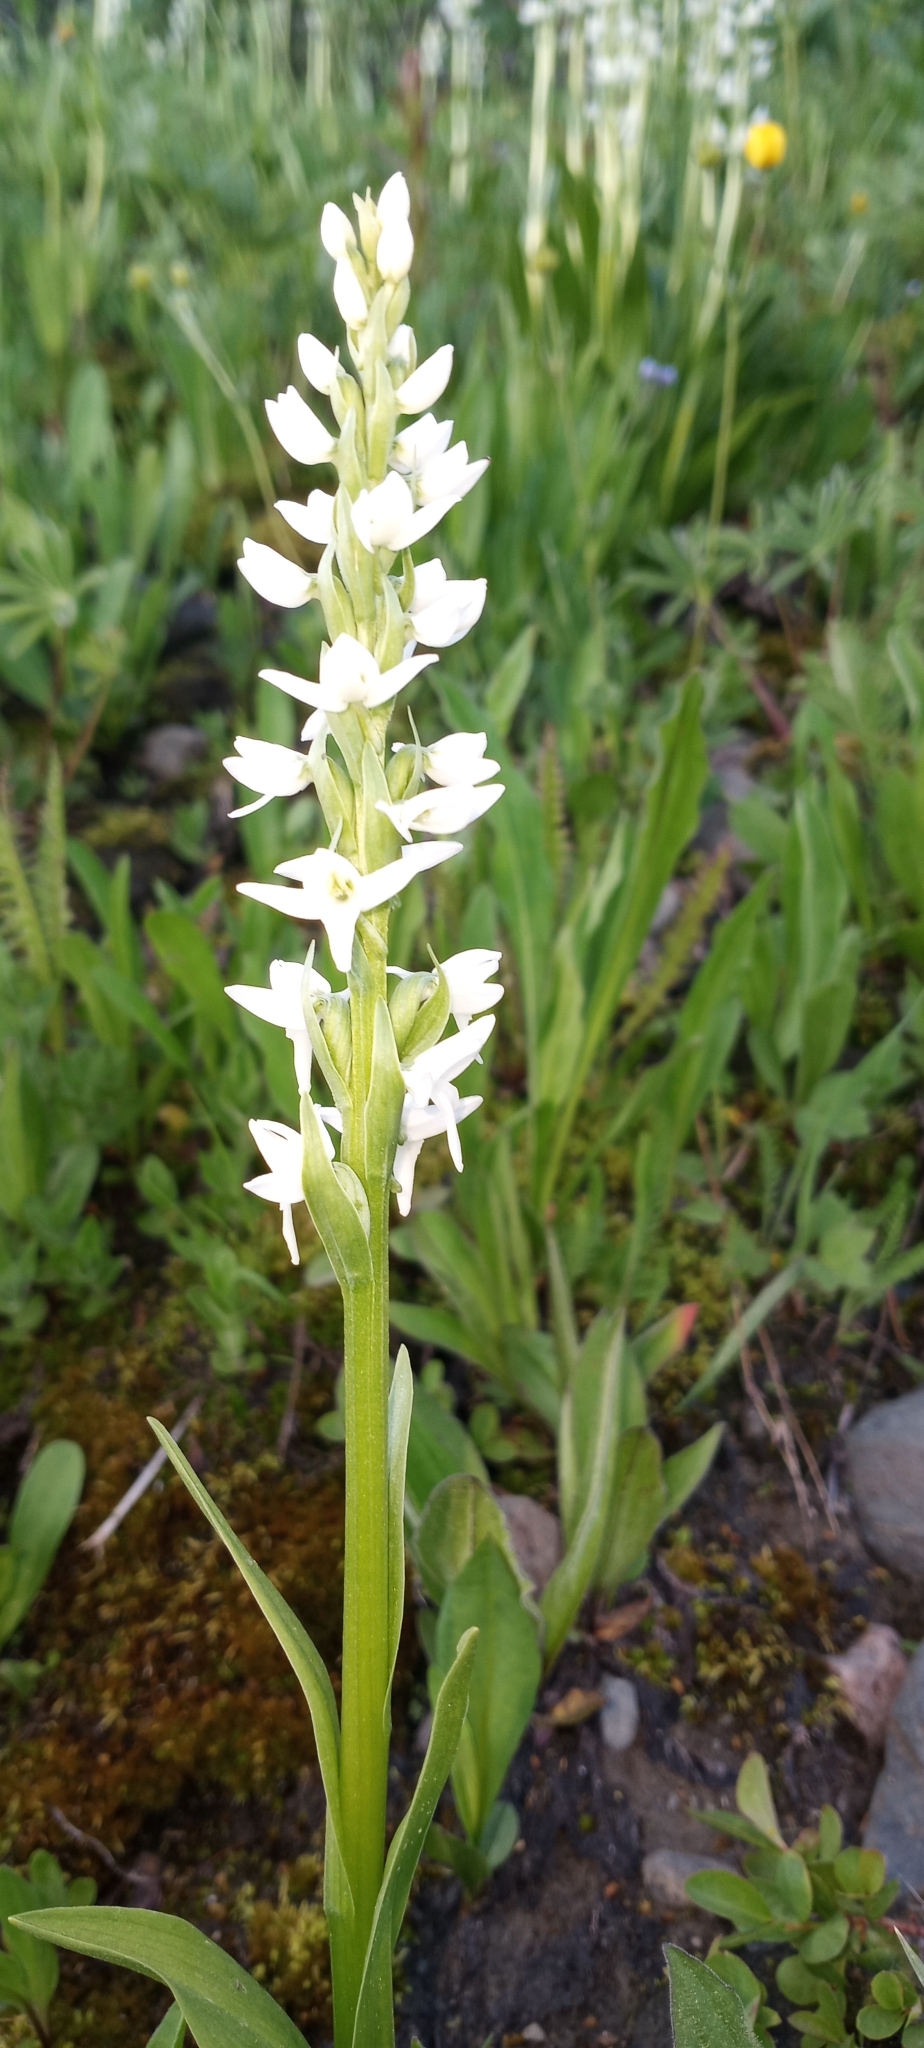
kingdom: Plantae
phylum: Tracheophyta
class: Liliopsida
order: Asparagales
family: Orchidaceae
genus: Platanthera
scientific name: Platanthera dilatata
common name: Bog candles
